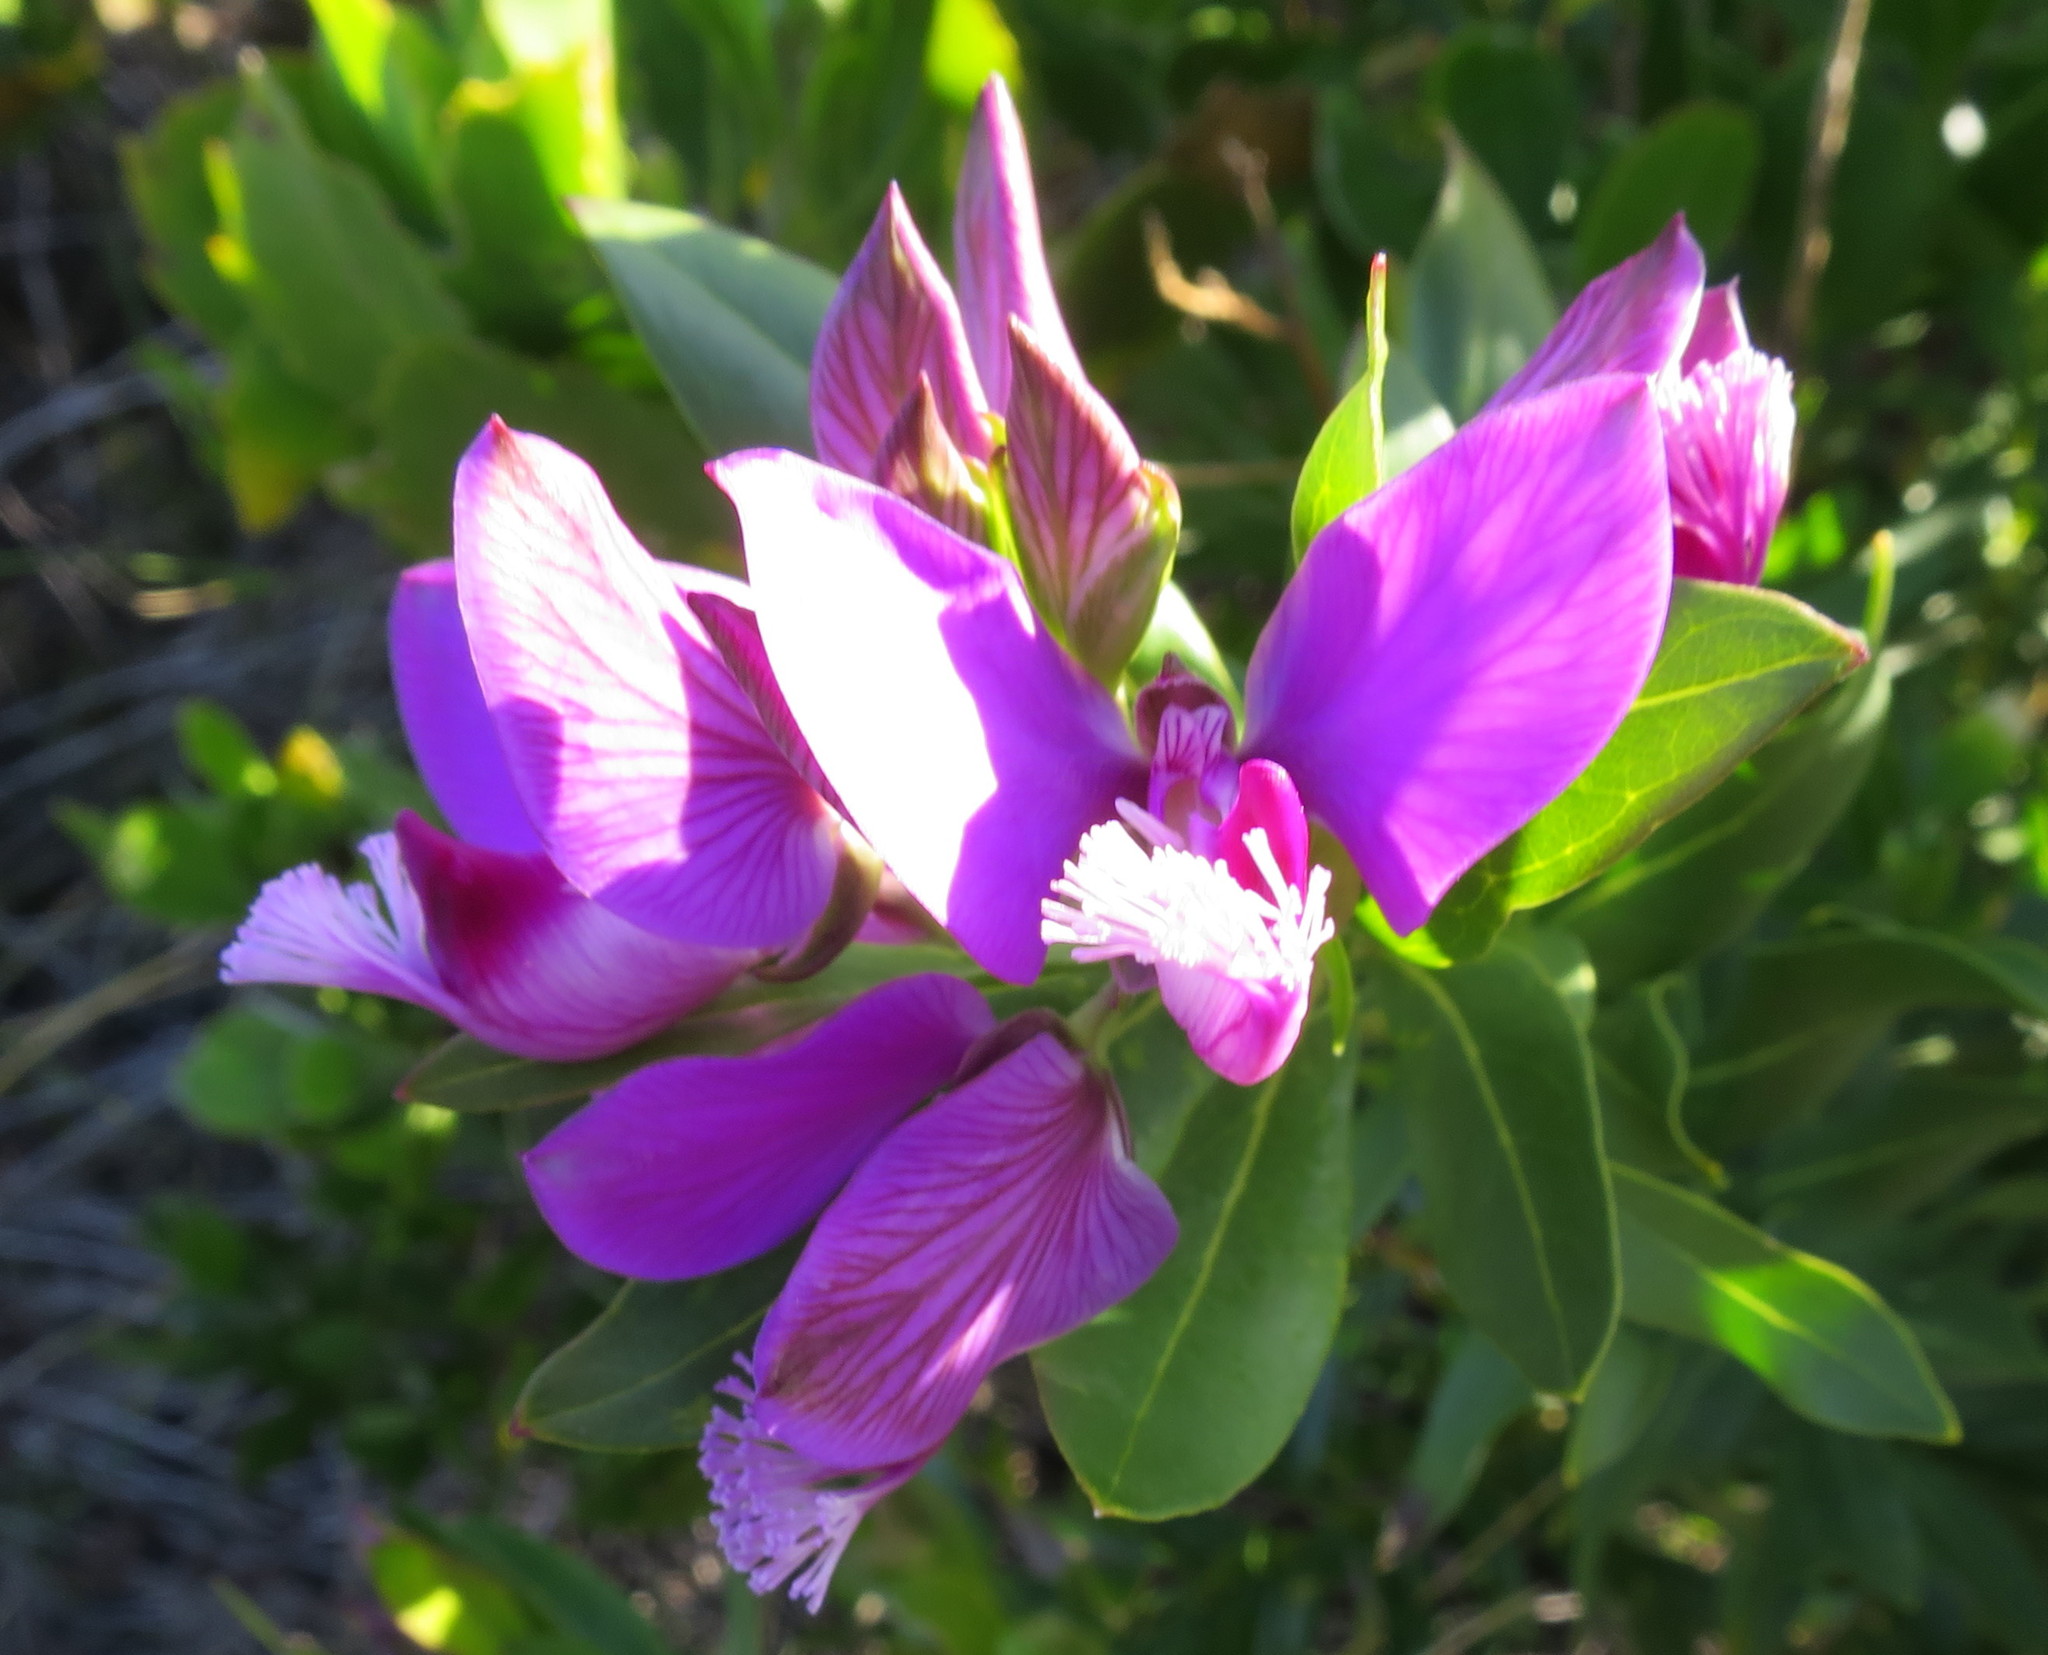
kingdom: Plantae
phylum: Tracheophyta
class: Magnoliopsida
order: Fabales
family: Polygalaceae
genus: Polygala
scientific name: Polygala myrtifolia
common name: Myrtle-leaf milkwort
